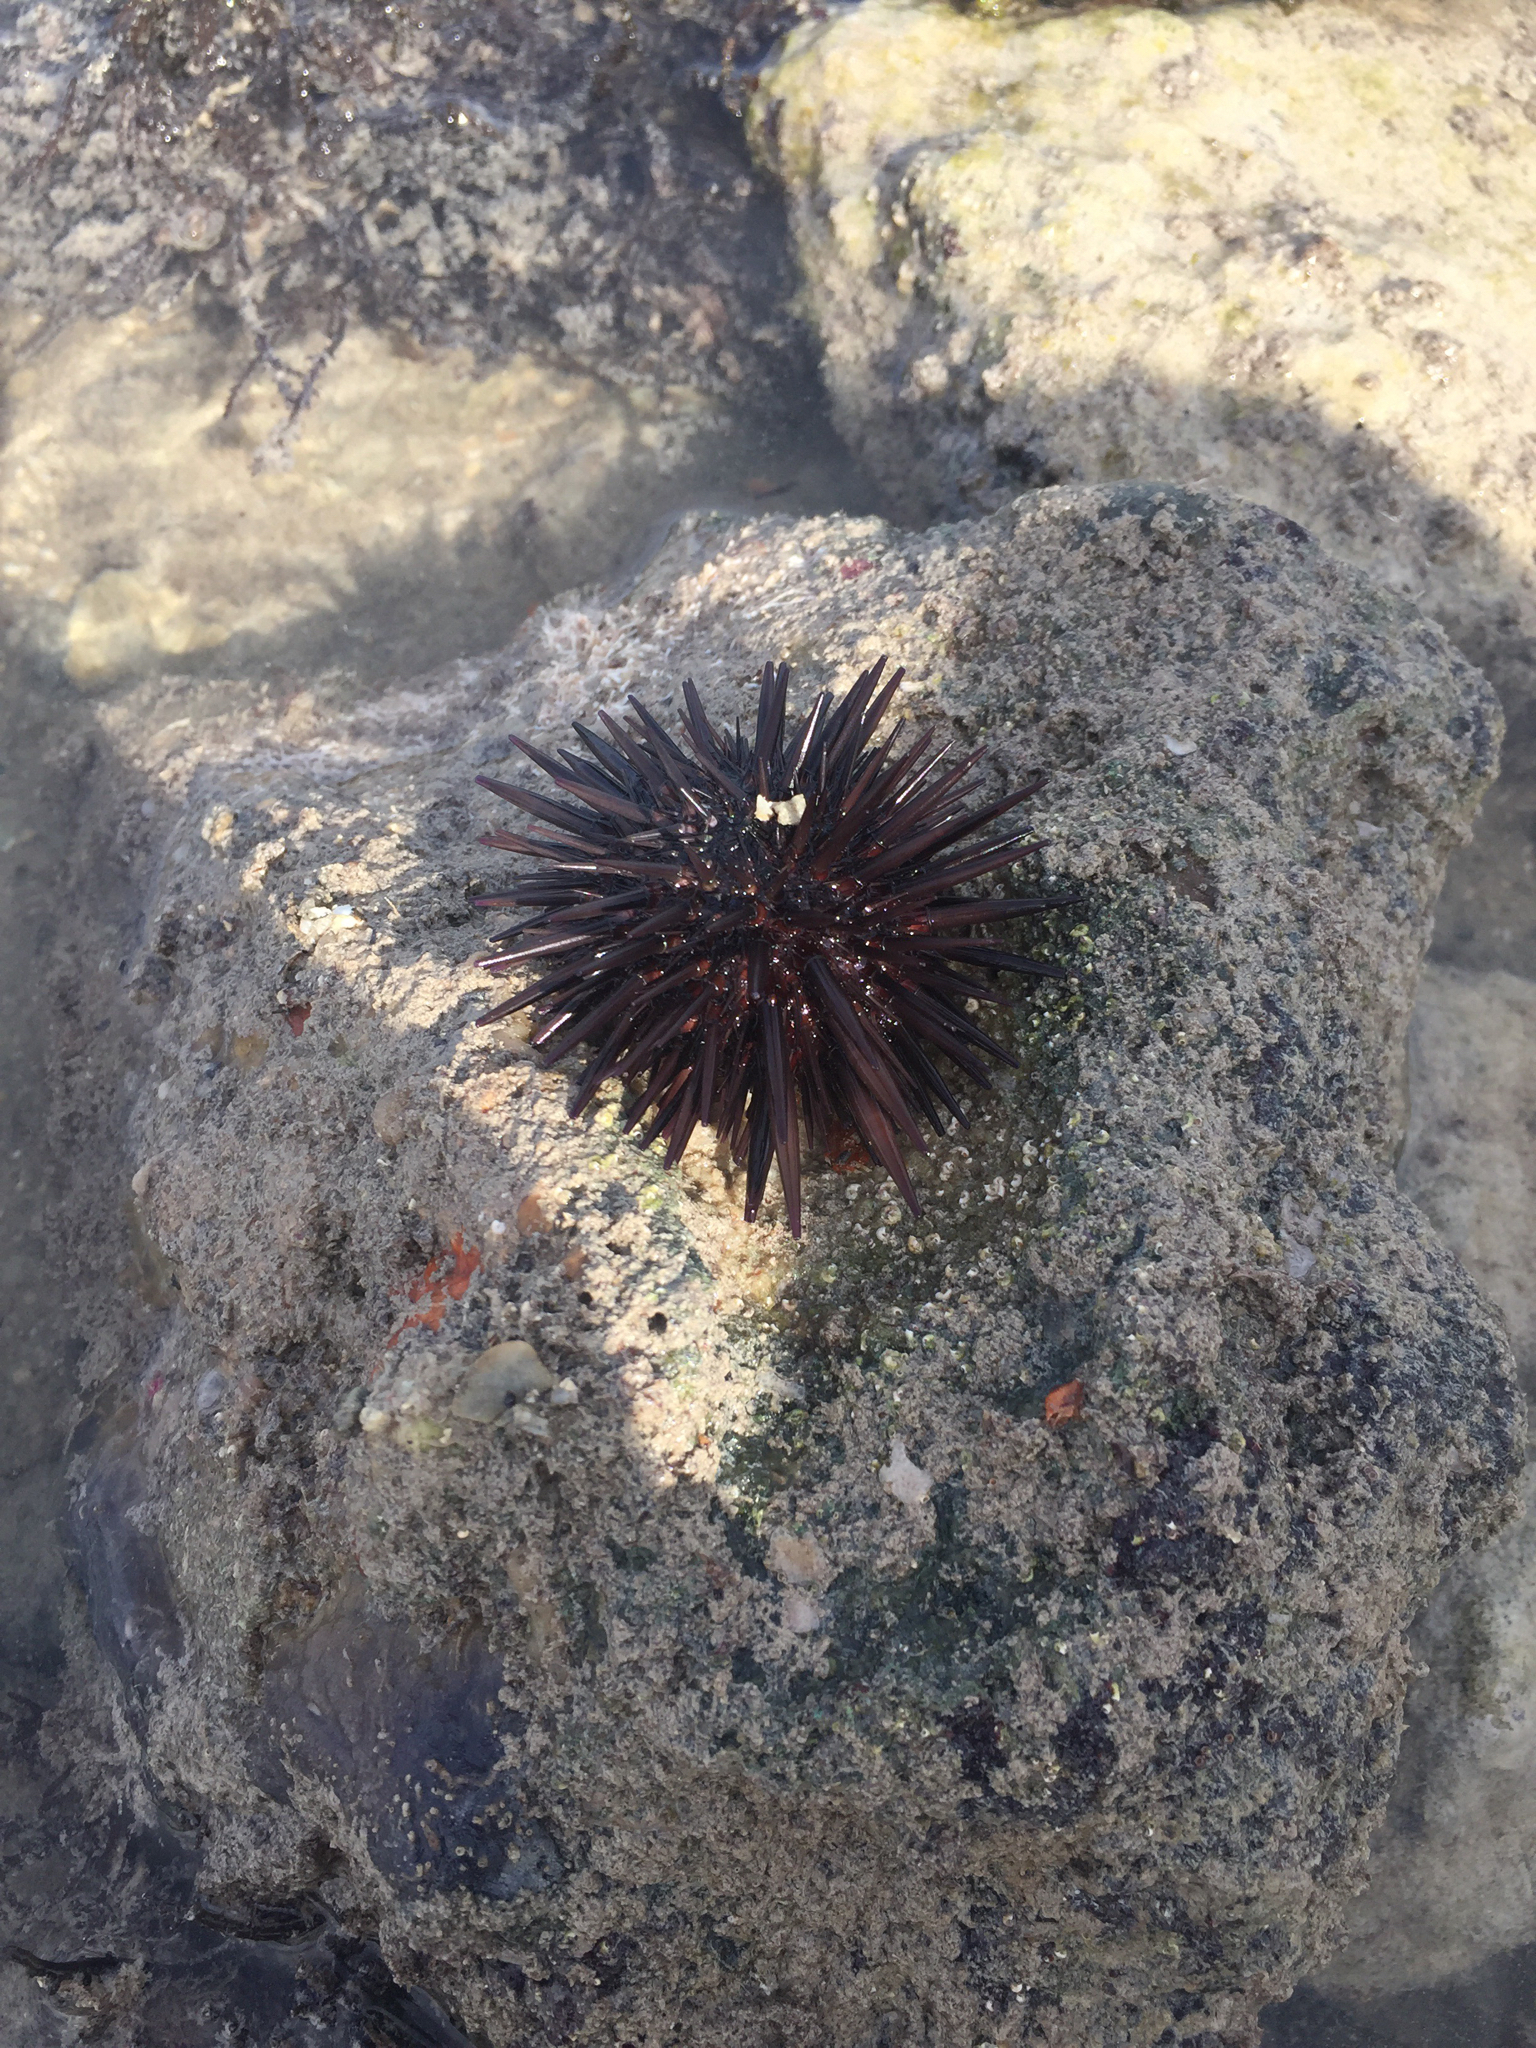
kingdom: Animalia
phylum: Echinodermata
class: Echinoidea
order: Camarodonta
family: Echinometridae
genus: Echinometra
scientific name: Echinometra lucunter
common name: Rock urchin
